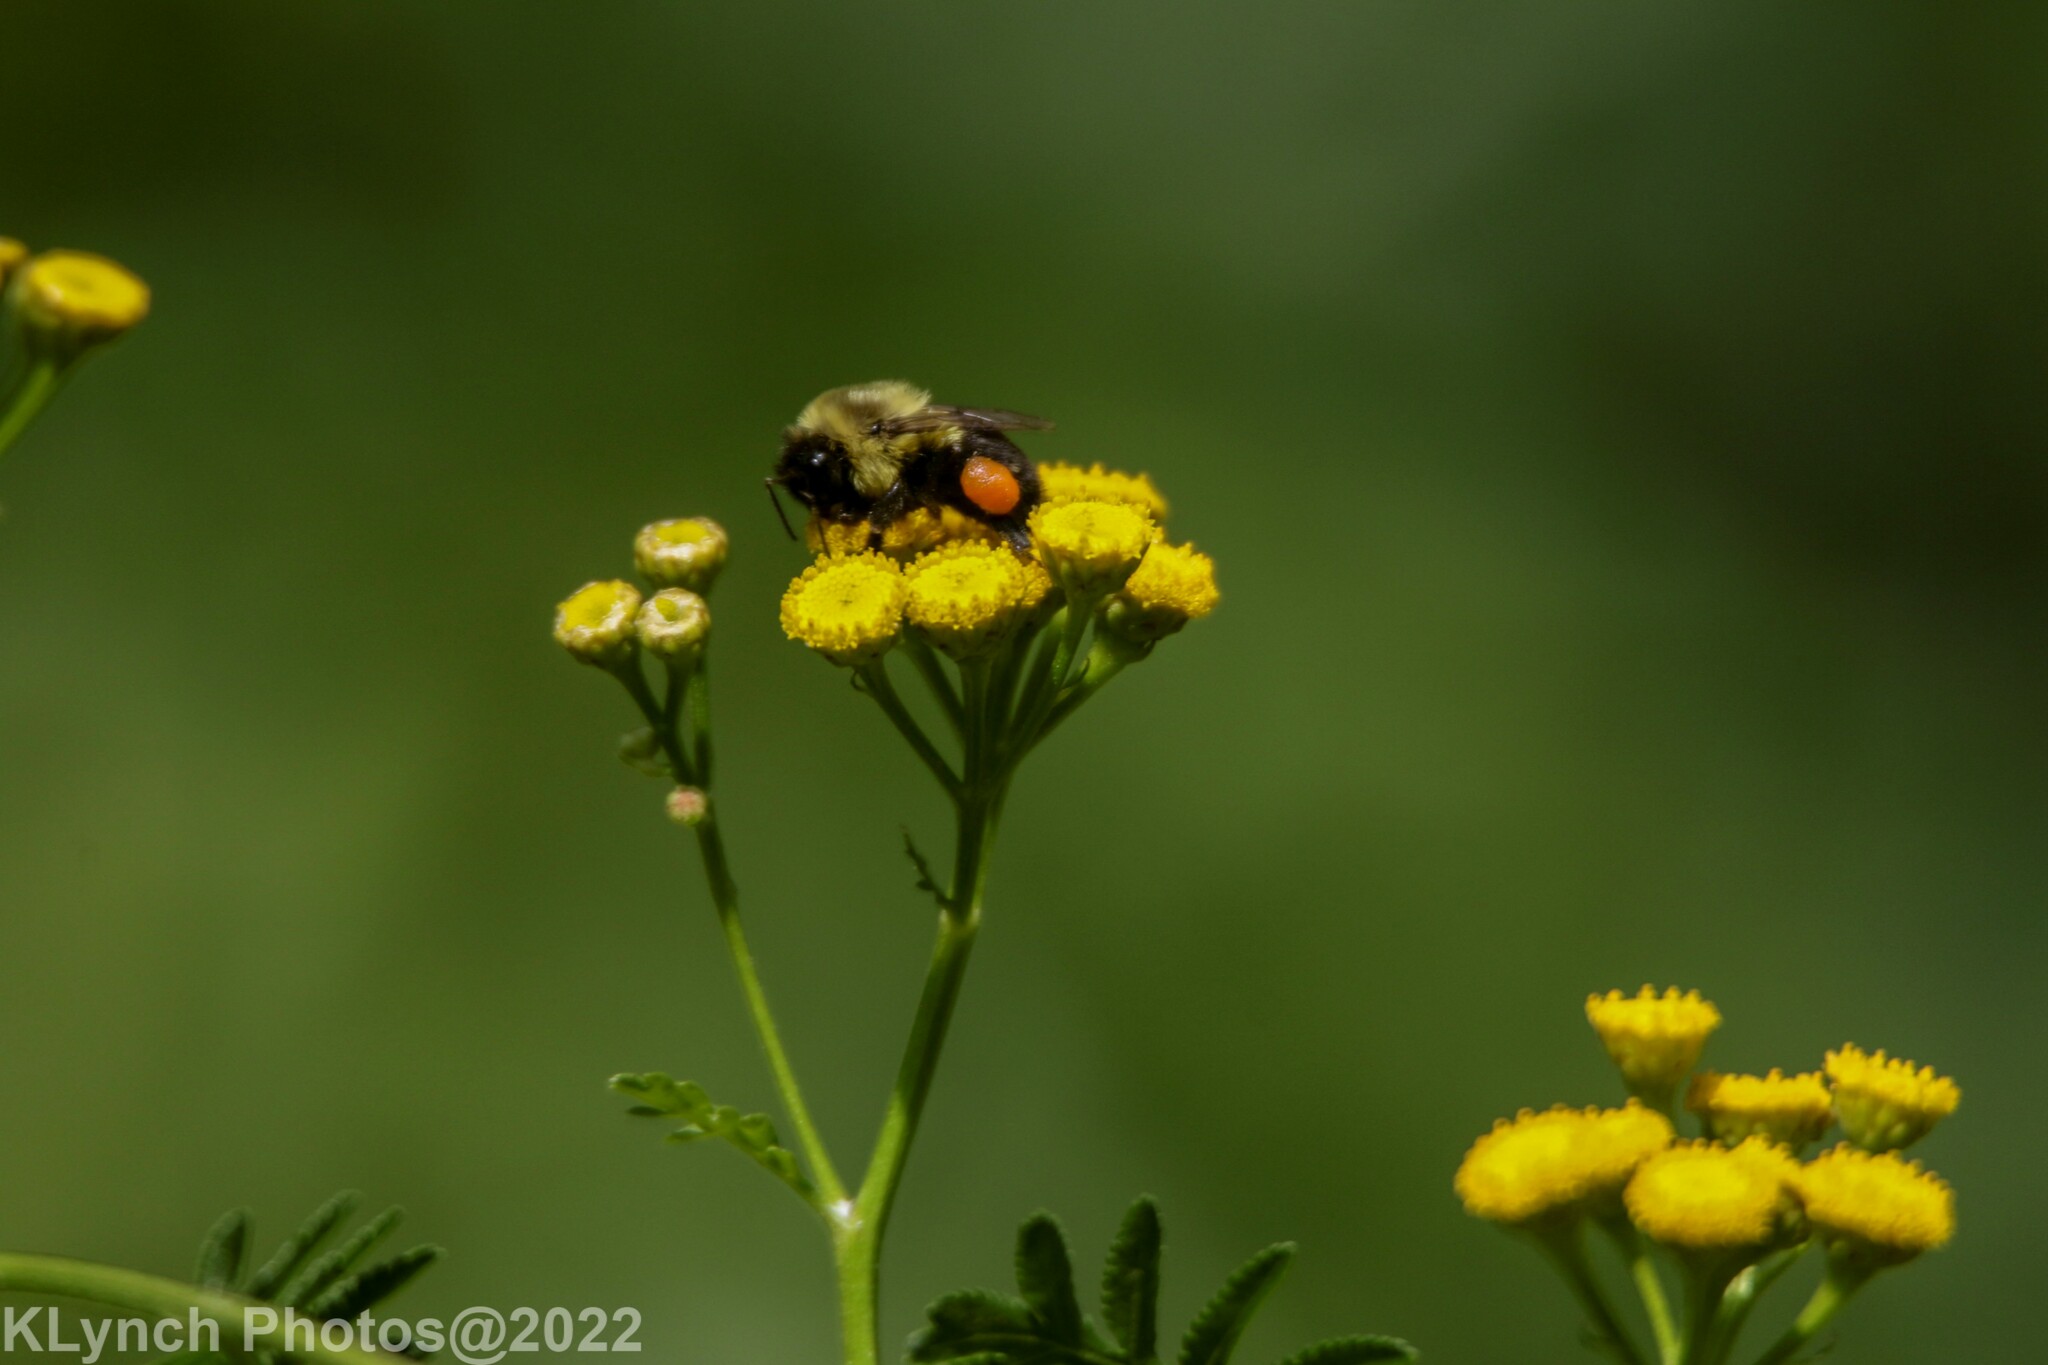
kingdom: Animalia
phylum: Arthropoda
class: Insecta
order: Hymenoptera
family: Apidae
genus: Bombus
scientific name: Bombus impatiens
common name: Common eastern bumble bee
